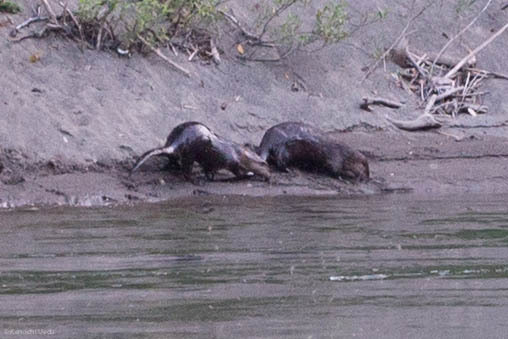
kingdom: Animalia
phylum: Chordata
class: Mammalia
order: Carnivora
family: Mustelidae
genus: Lontra
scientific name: Lontra canadensis
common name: North american river otter
